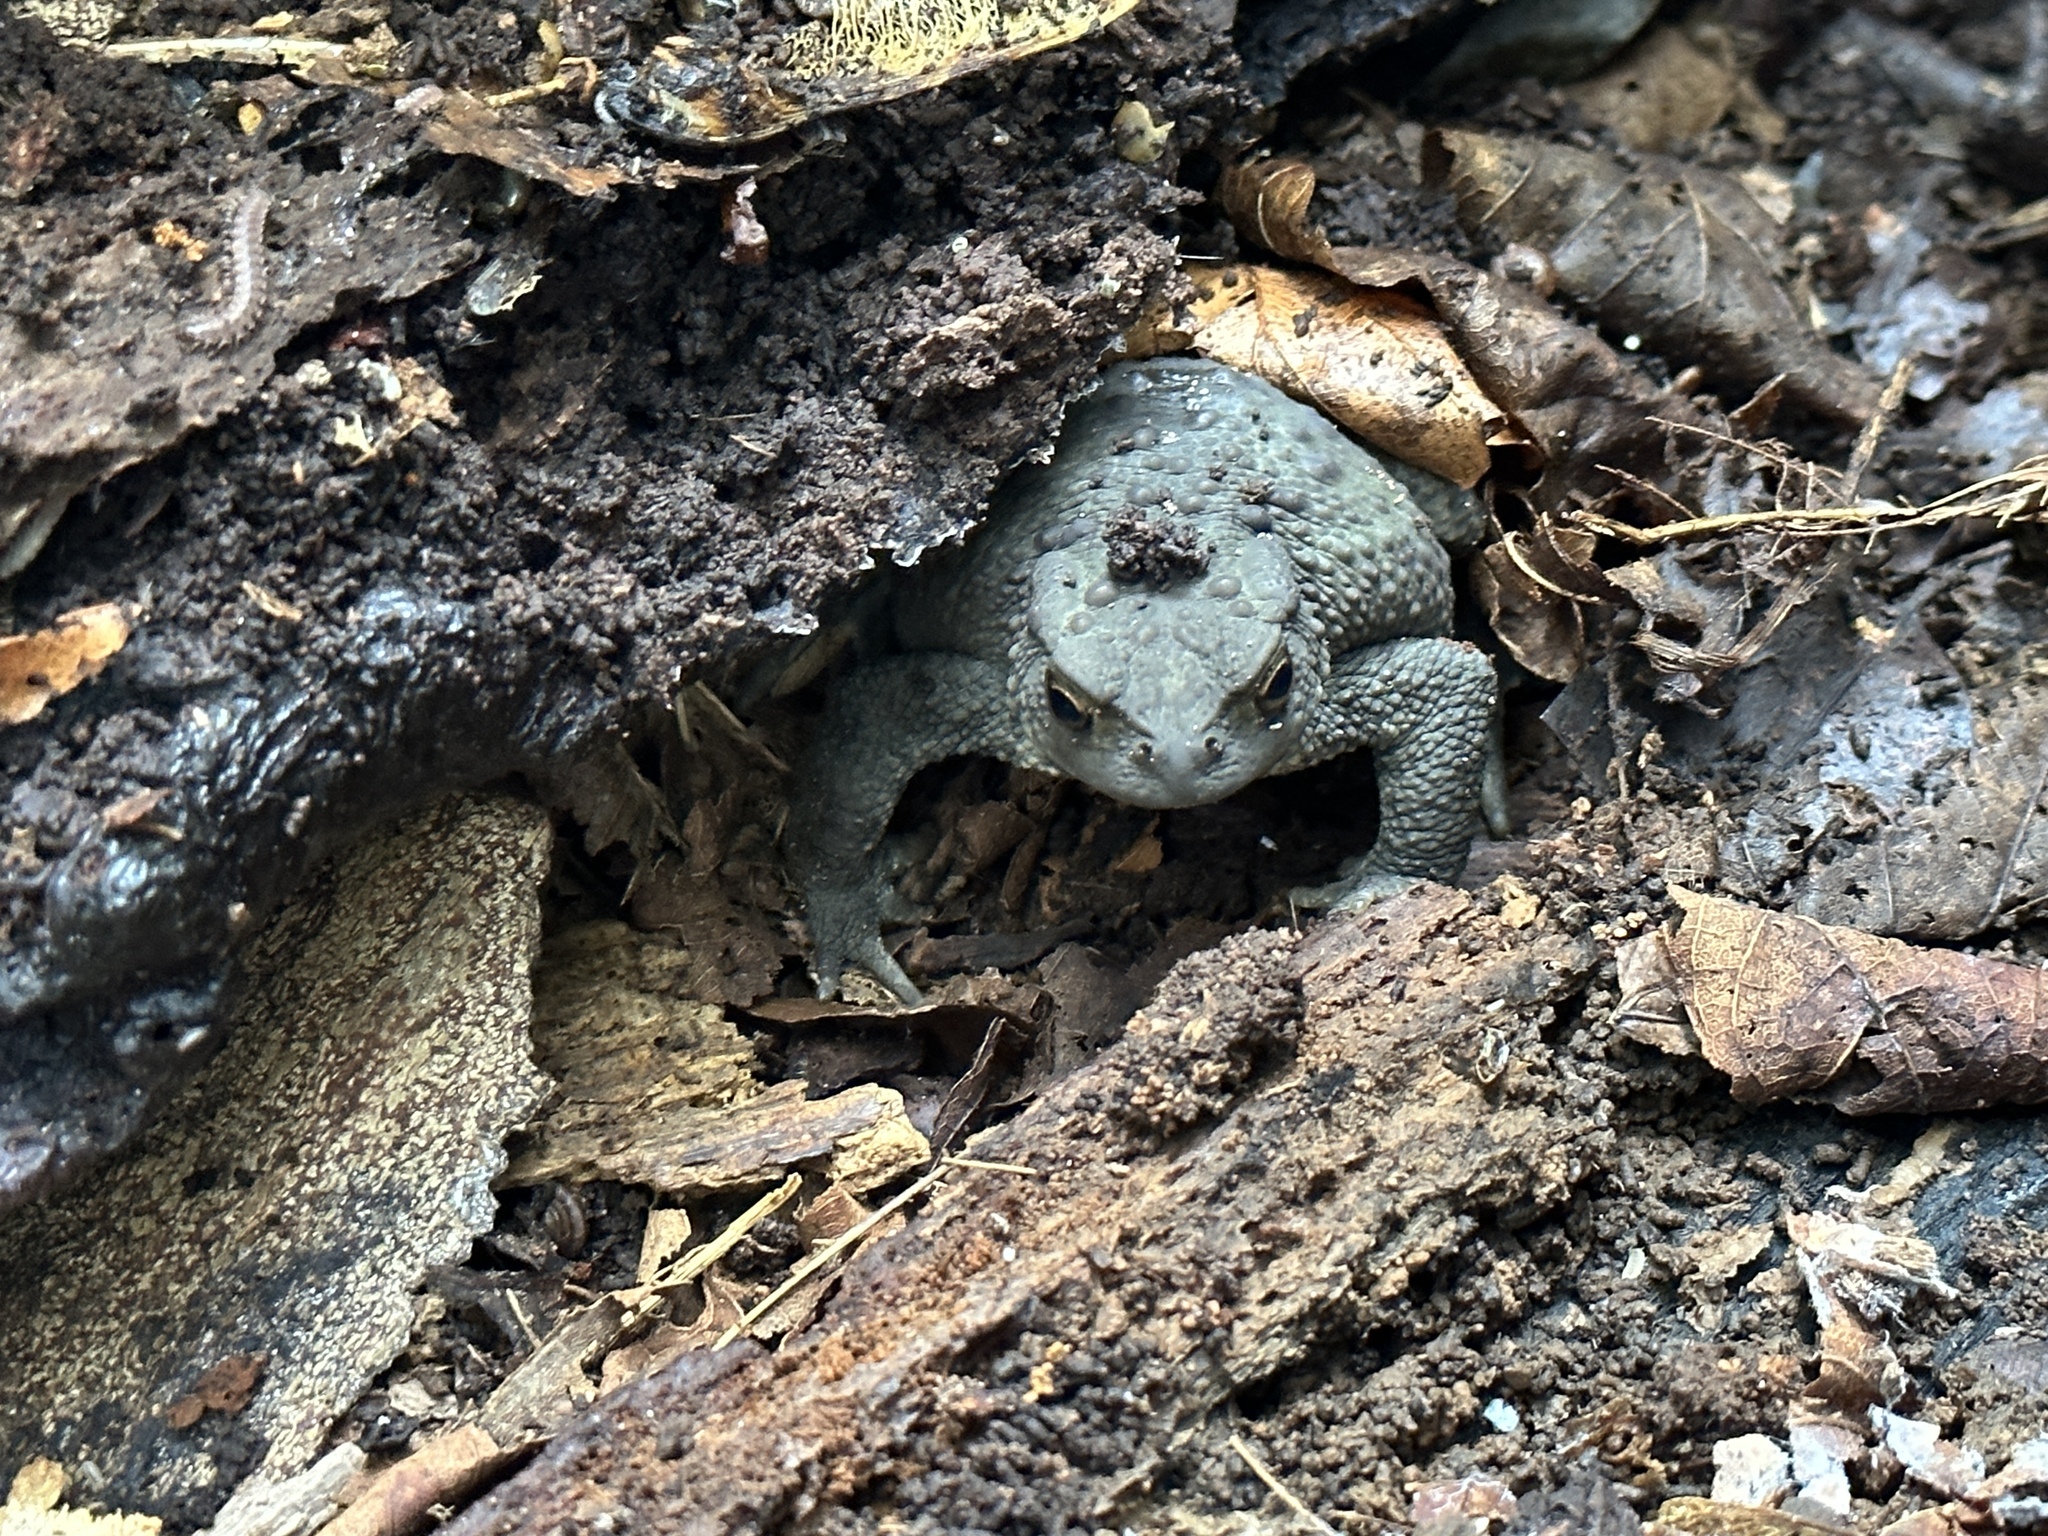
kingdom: Animalia
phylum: Chordata
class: Amphibia
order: Anura
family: Bufonidae
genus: Bufo
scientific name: Bufo bufo
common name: Common toad
